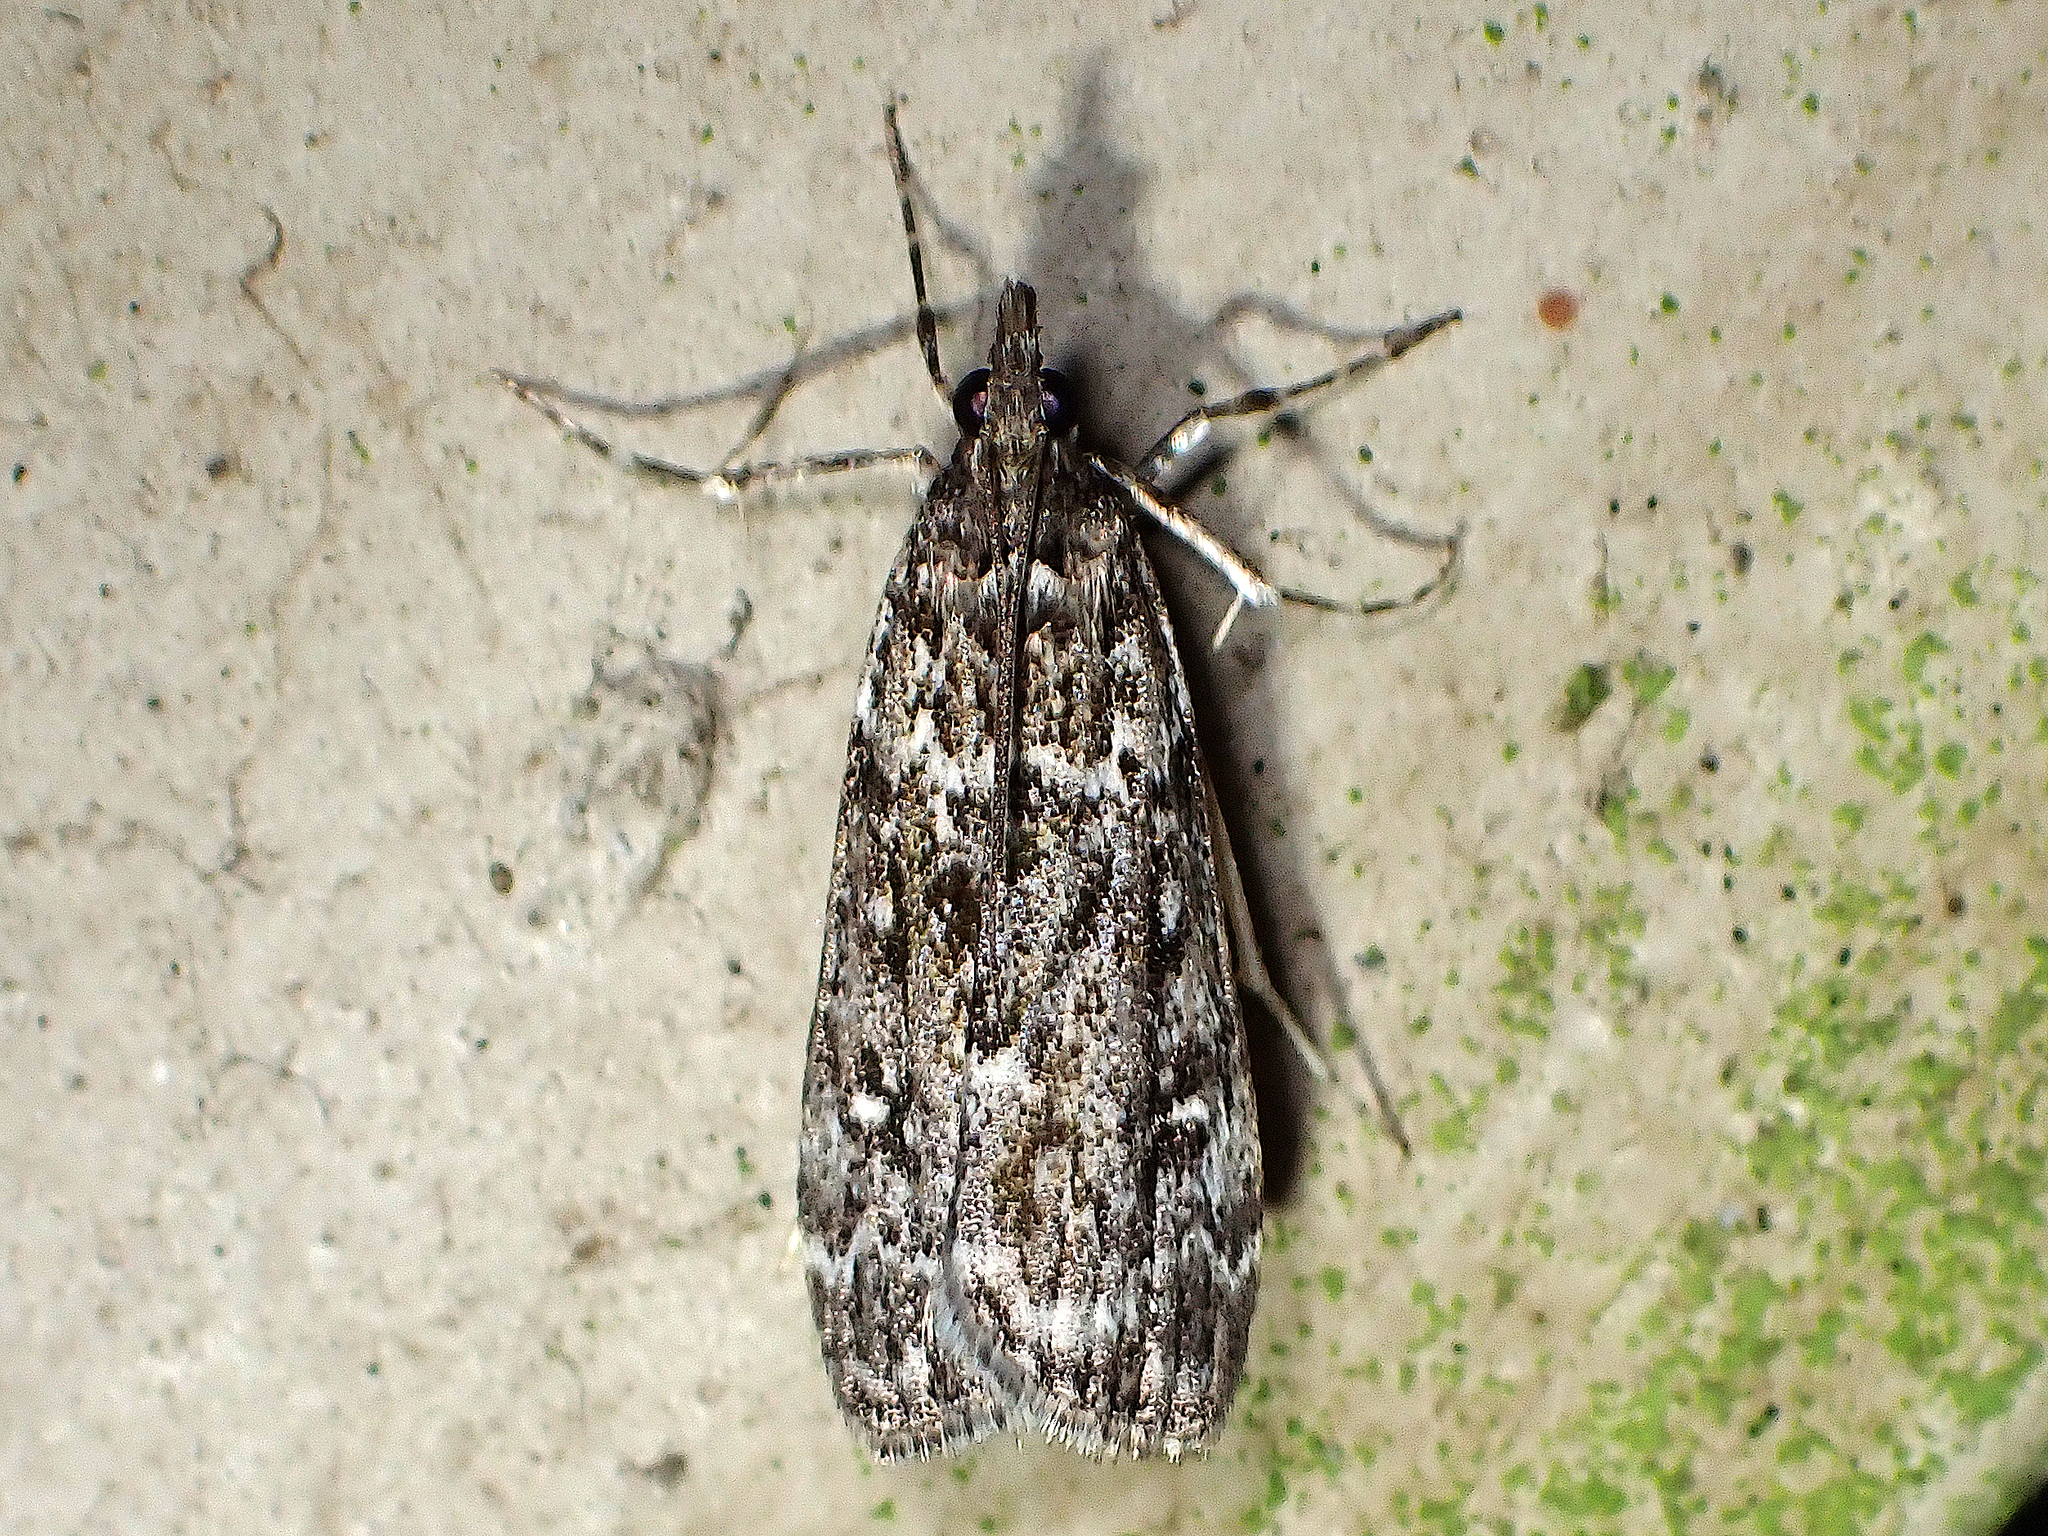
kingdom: Animalia
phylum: Arthropoda
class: Insecta
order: Lepidoptera
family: Crambidae
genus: Eudonia
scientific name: Eudonia philerga
